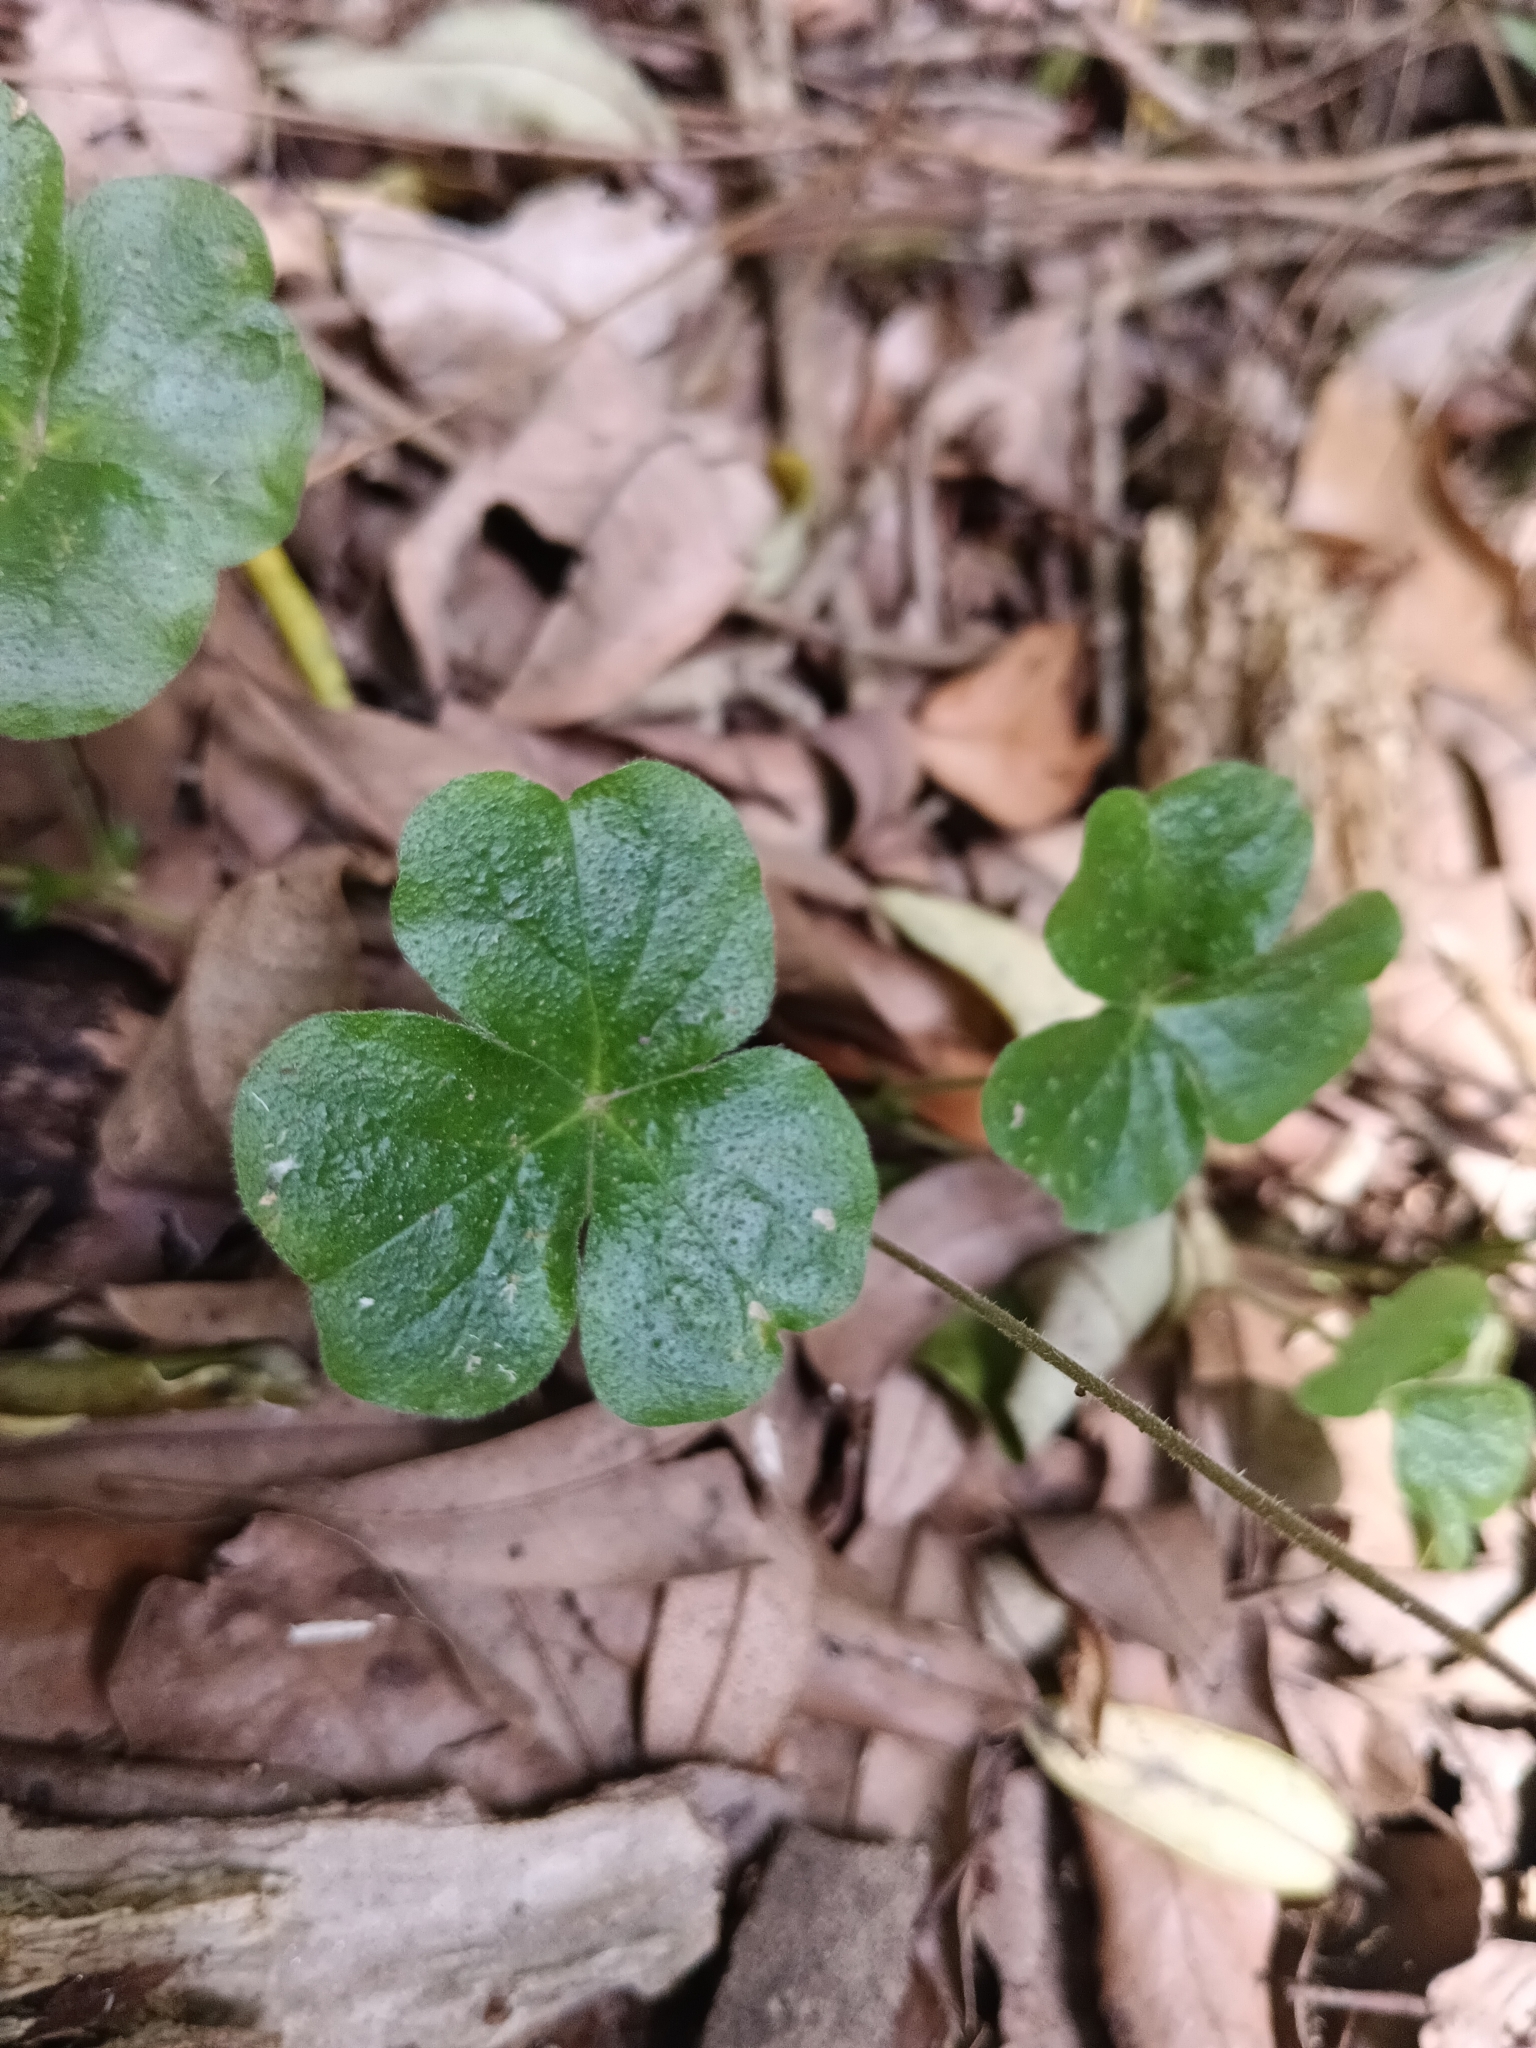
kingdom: Plantae
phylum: Tracheophyta
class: Magnoliopsida
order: Oxalidales
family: Oxalidaceae
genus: Oxalis
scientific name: Oxalis dumetorum
